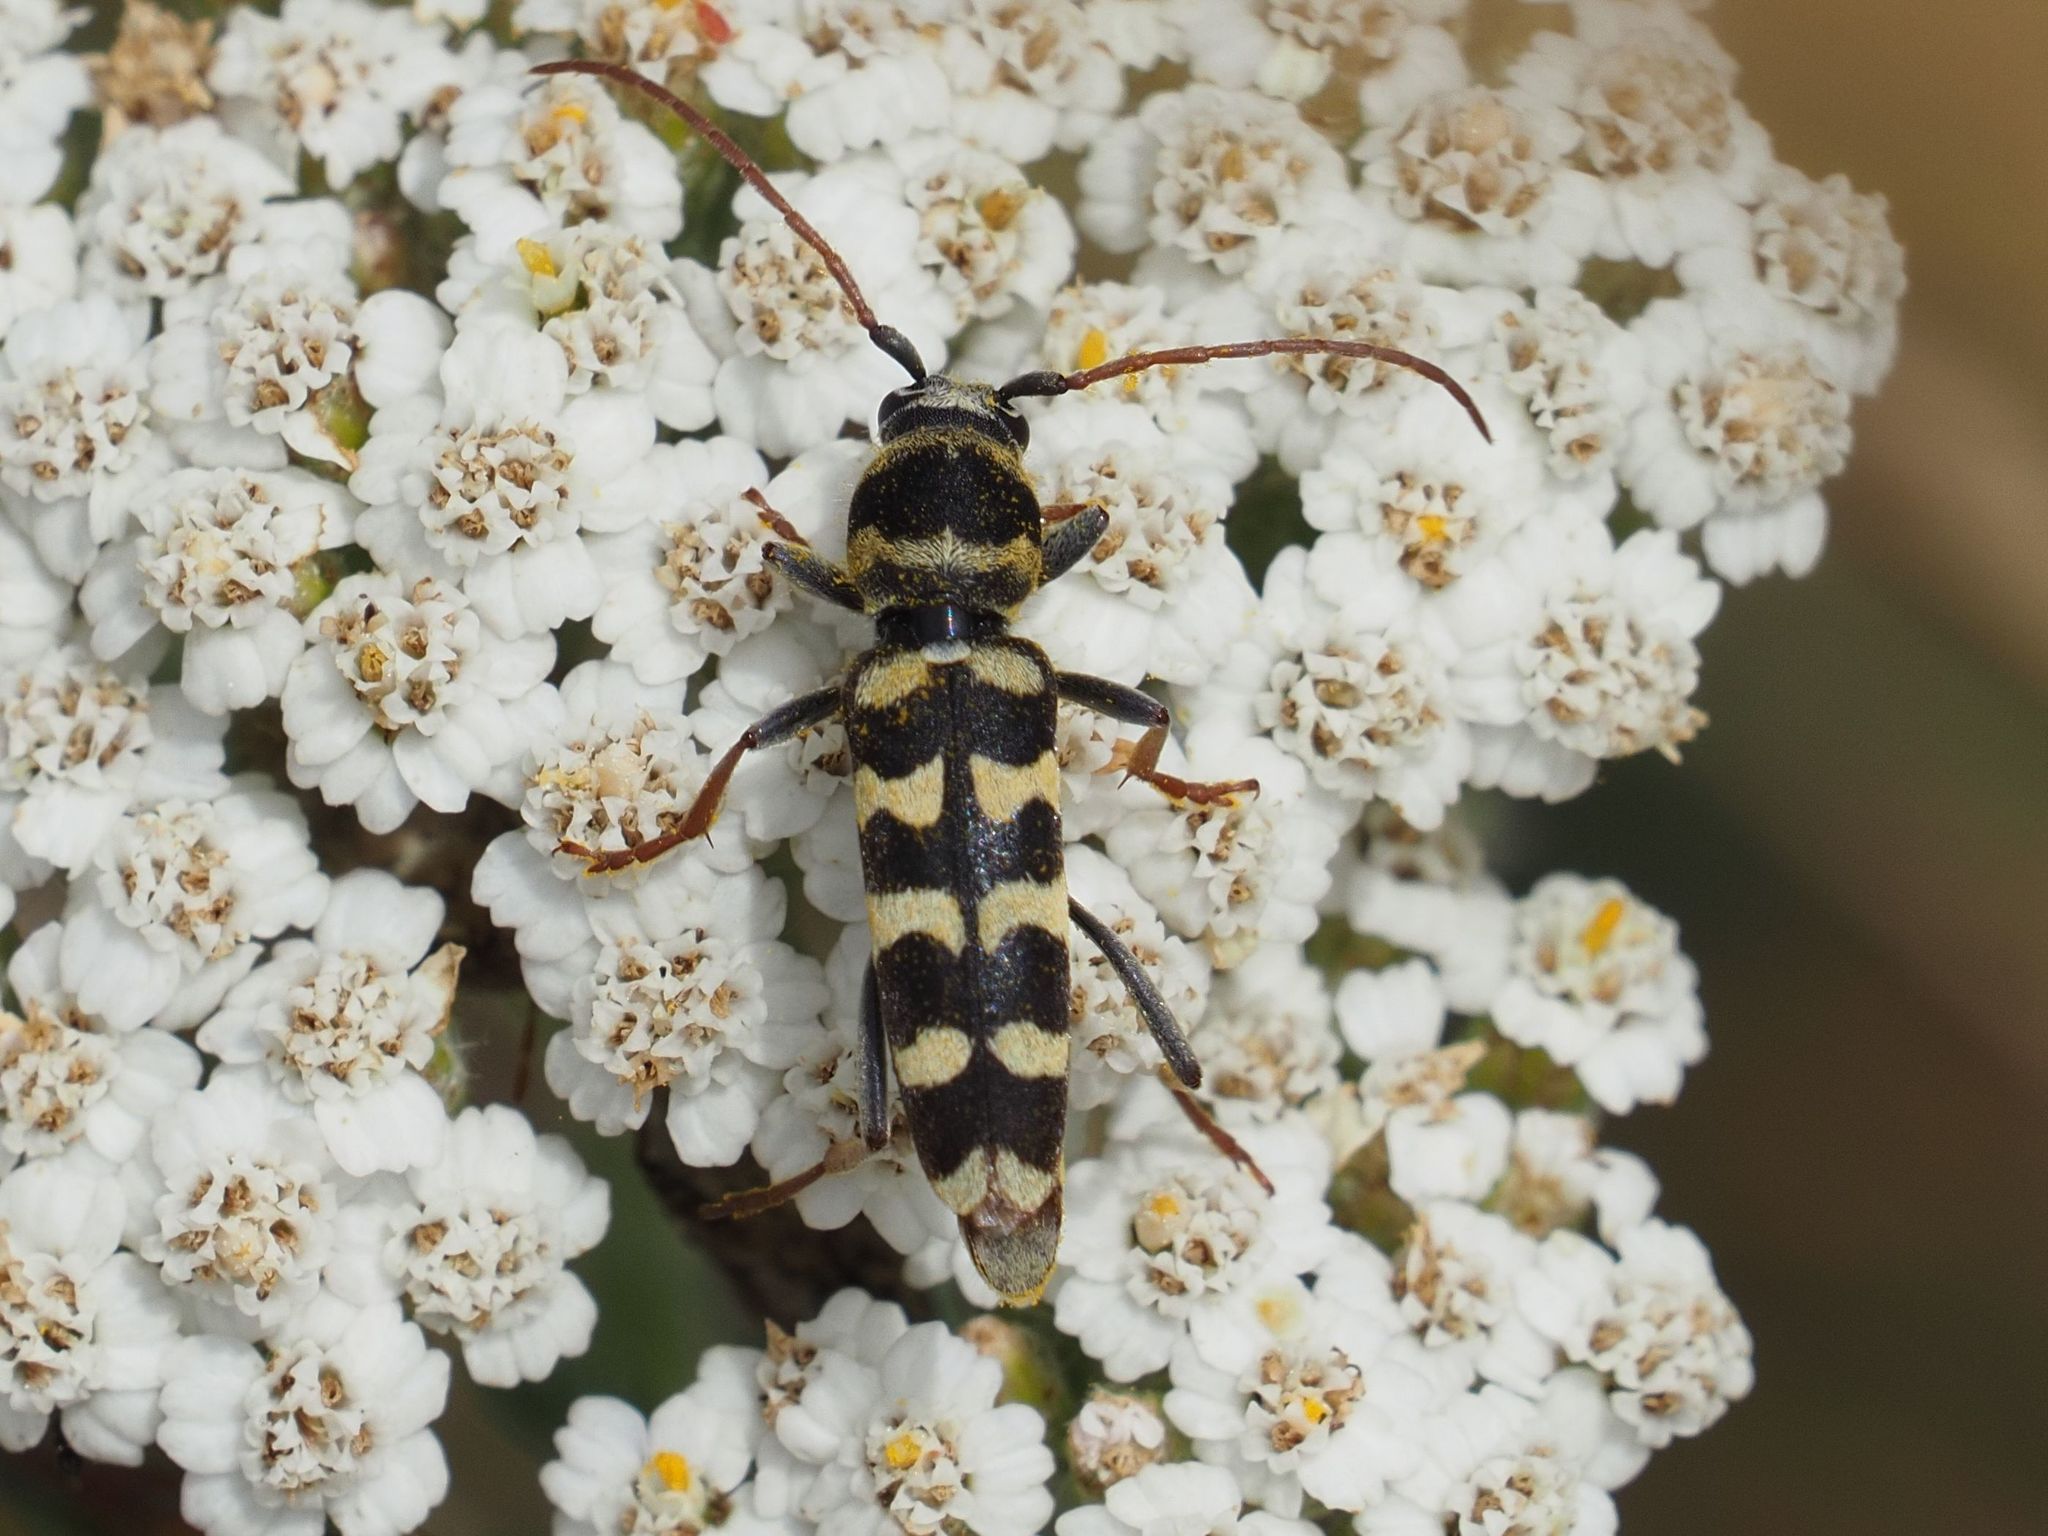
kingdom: Animalia
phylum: Arthropoda
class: Insecta
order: Coleoptera
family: Cerambycidae
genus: Plagionotus
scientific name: Plagionotus floralis
